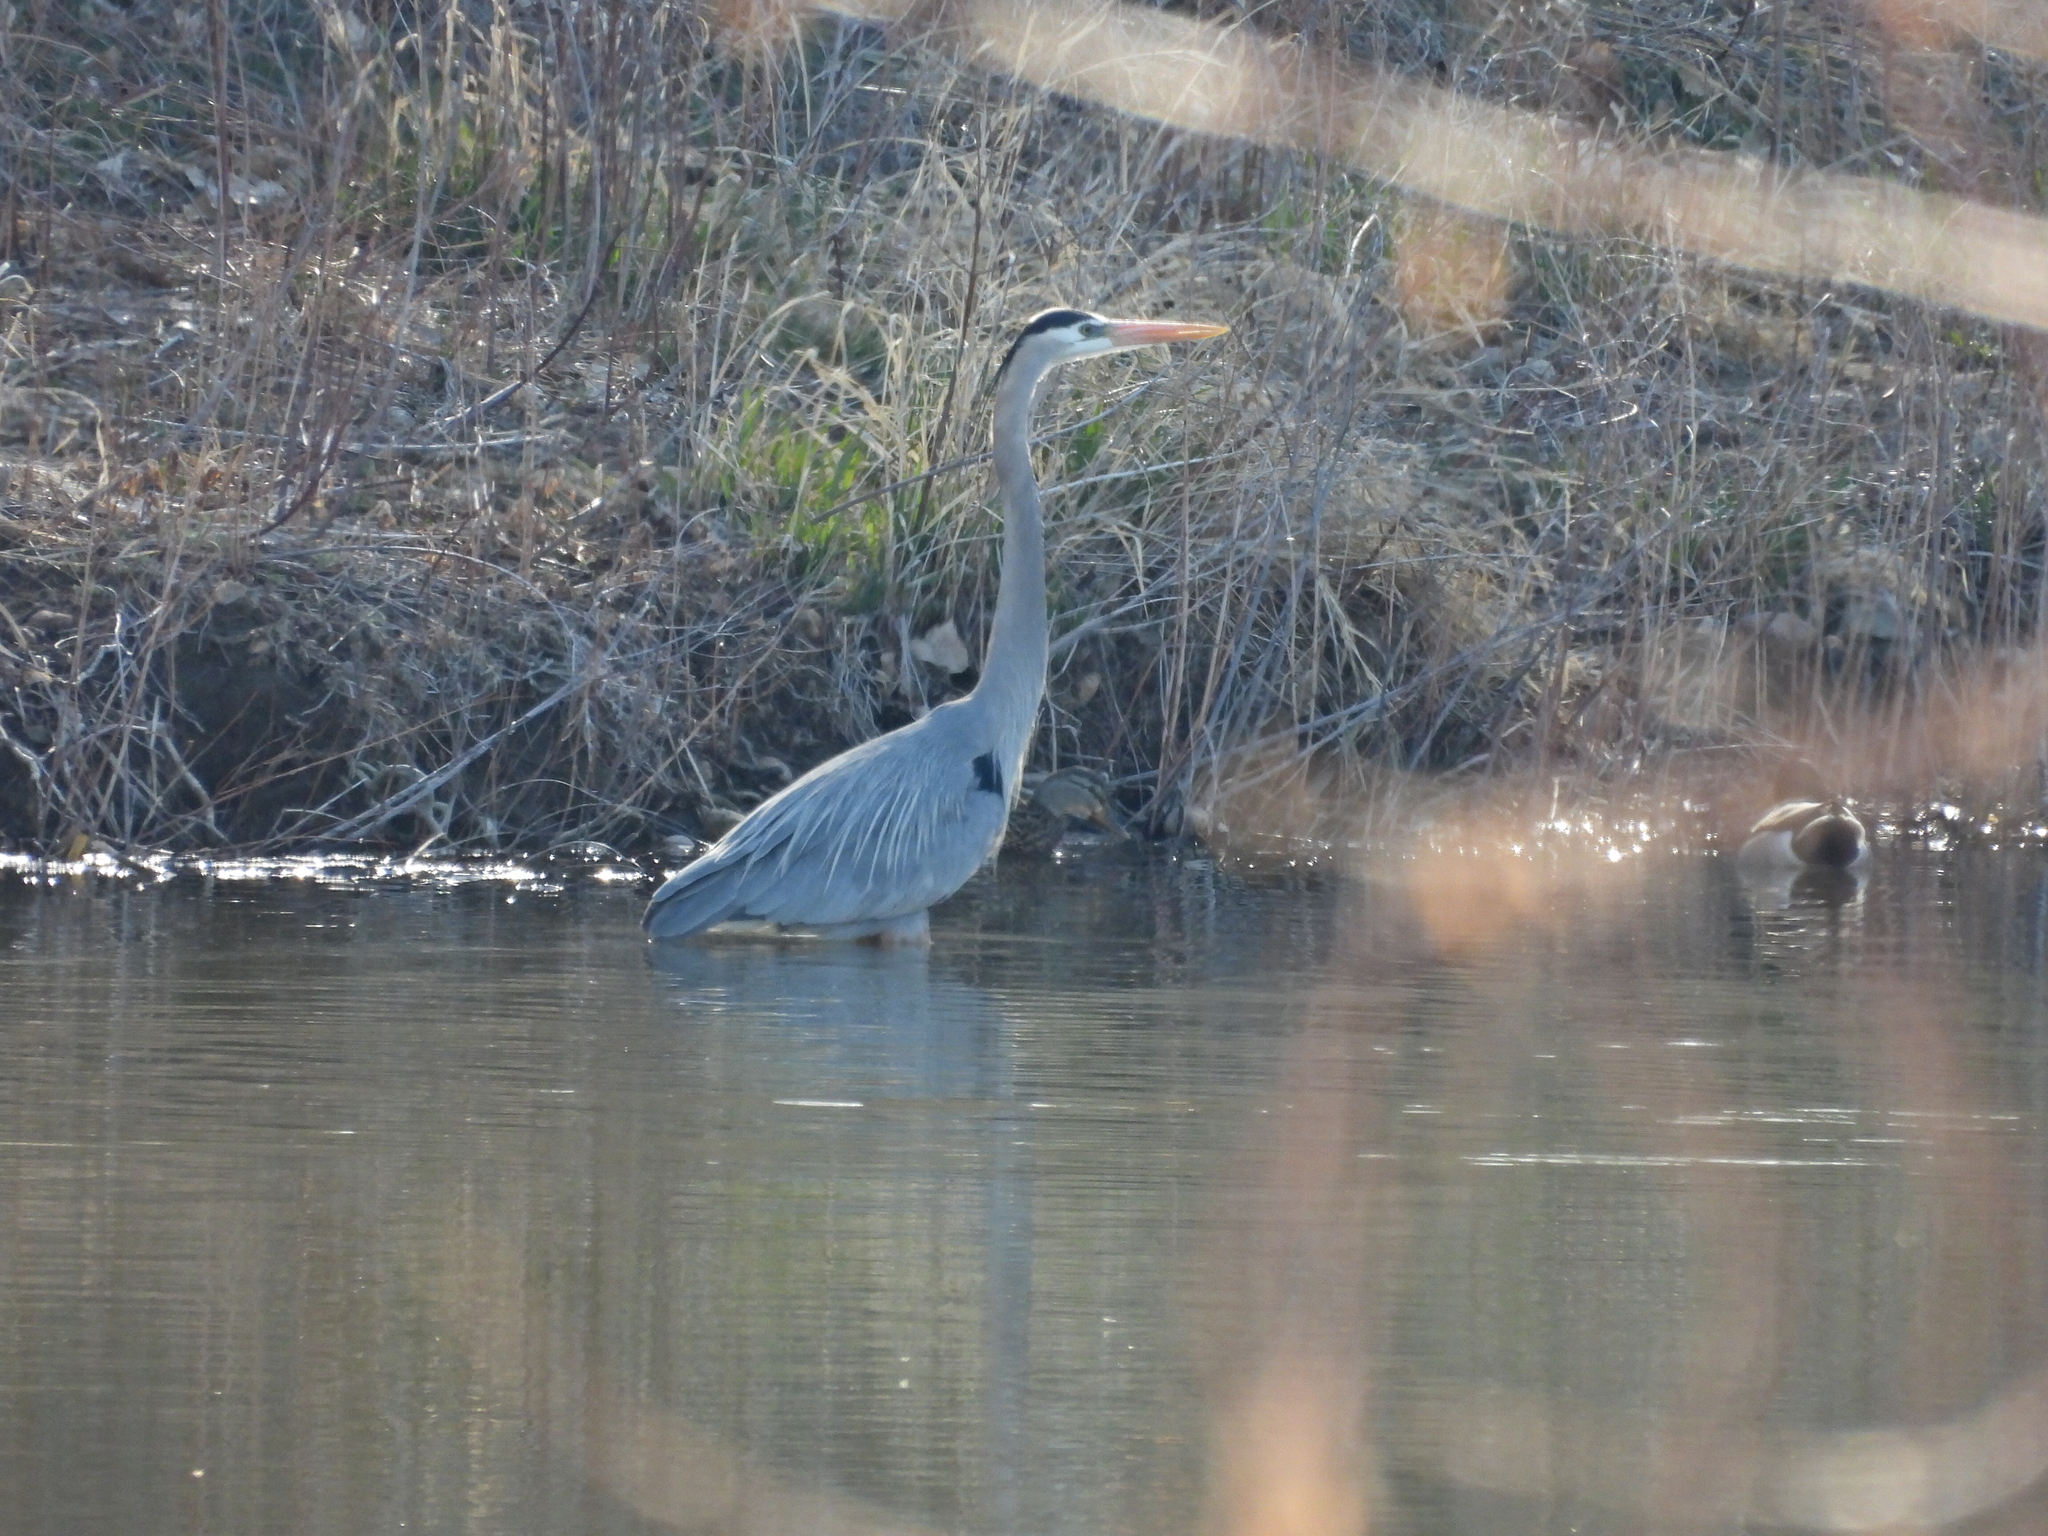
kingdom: Animalia
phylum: Chordata
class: Aves
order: Pelecaniformes
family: Ardeidae
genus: Ardea
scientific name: Ardea herodias
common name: Great blue heron
